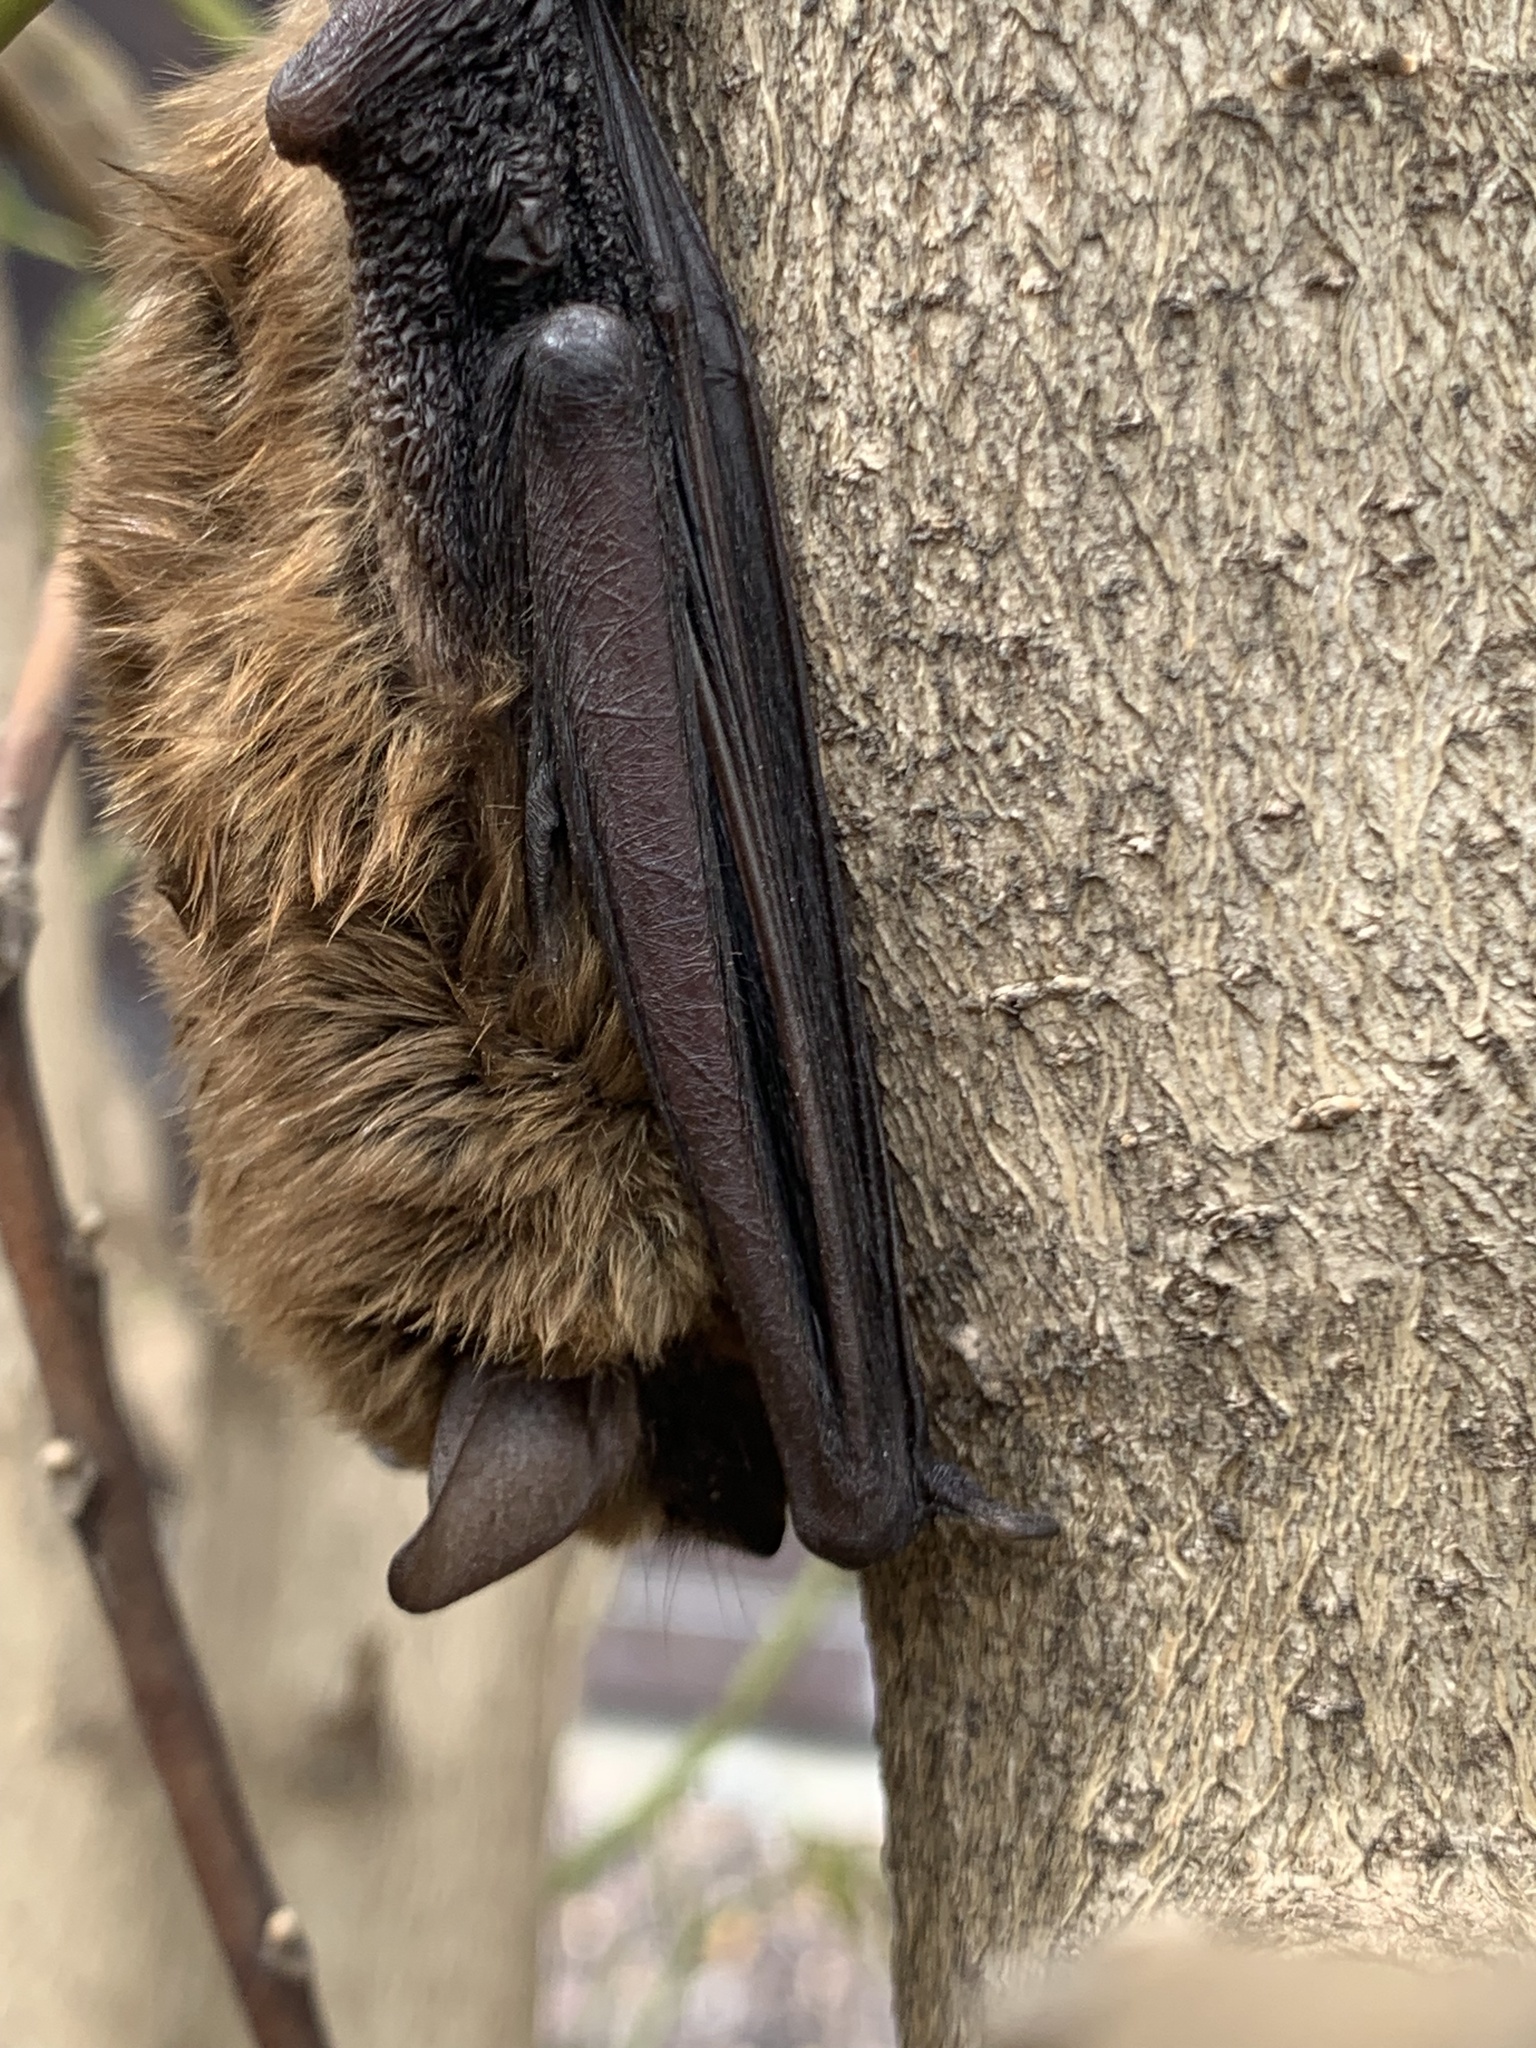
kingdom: Animalia
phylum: Chordata
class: Mammalia
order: Chiroptera
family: Vespertilionidae
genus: Eptesicus
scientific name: Eptesicus fuscus
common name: Big brown bat
